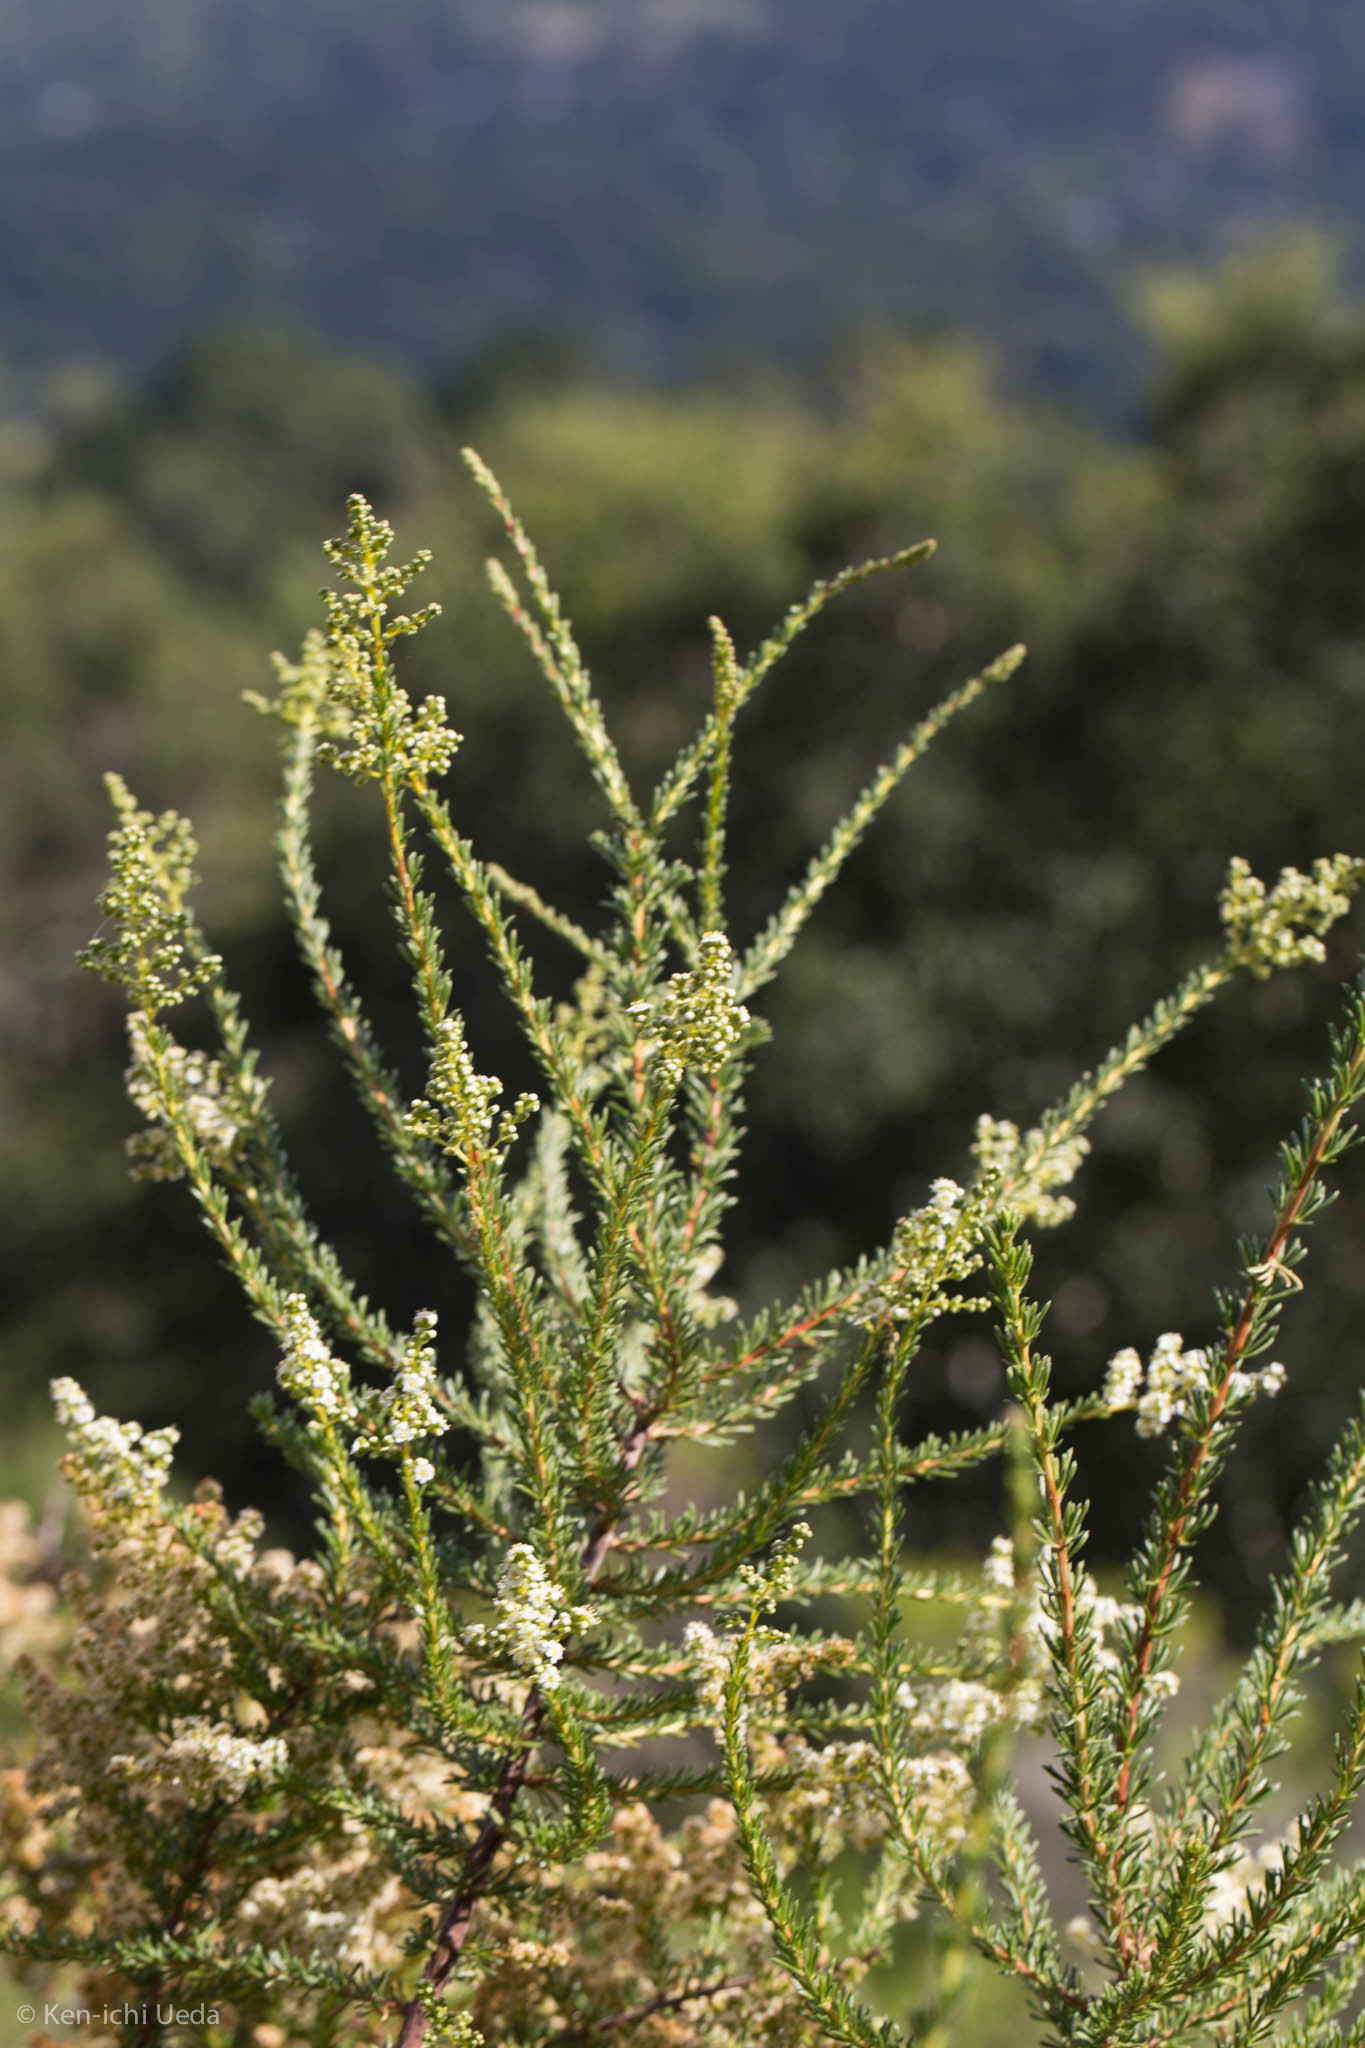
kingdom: Plantae
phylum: Tracheophyta
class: Magnoliopsida
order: Rosales
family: Rosaceae
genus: Adenostoma
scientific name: Adenostoma fasciculatum
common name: Chamise
